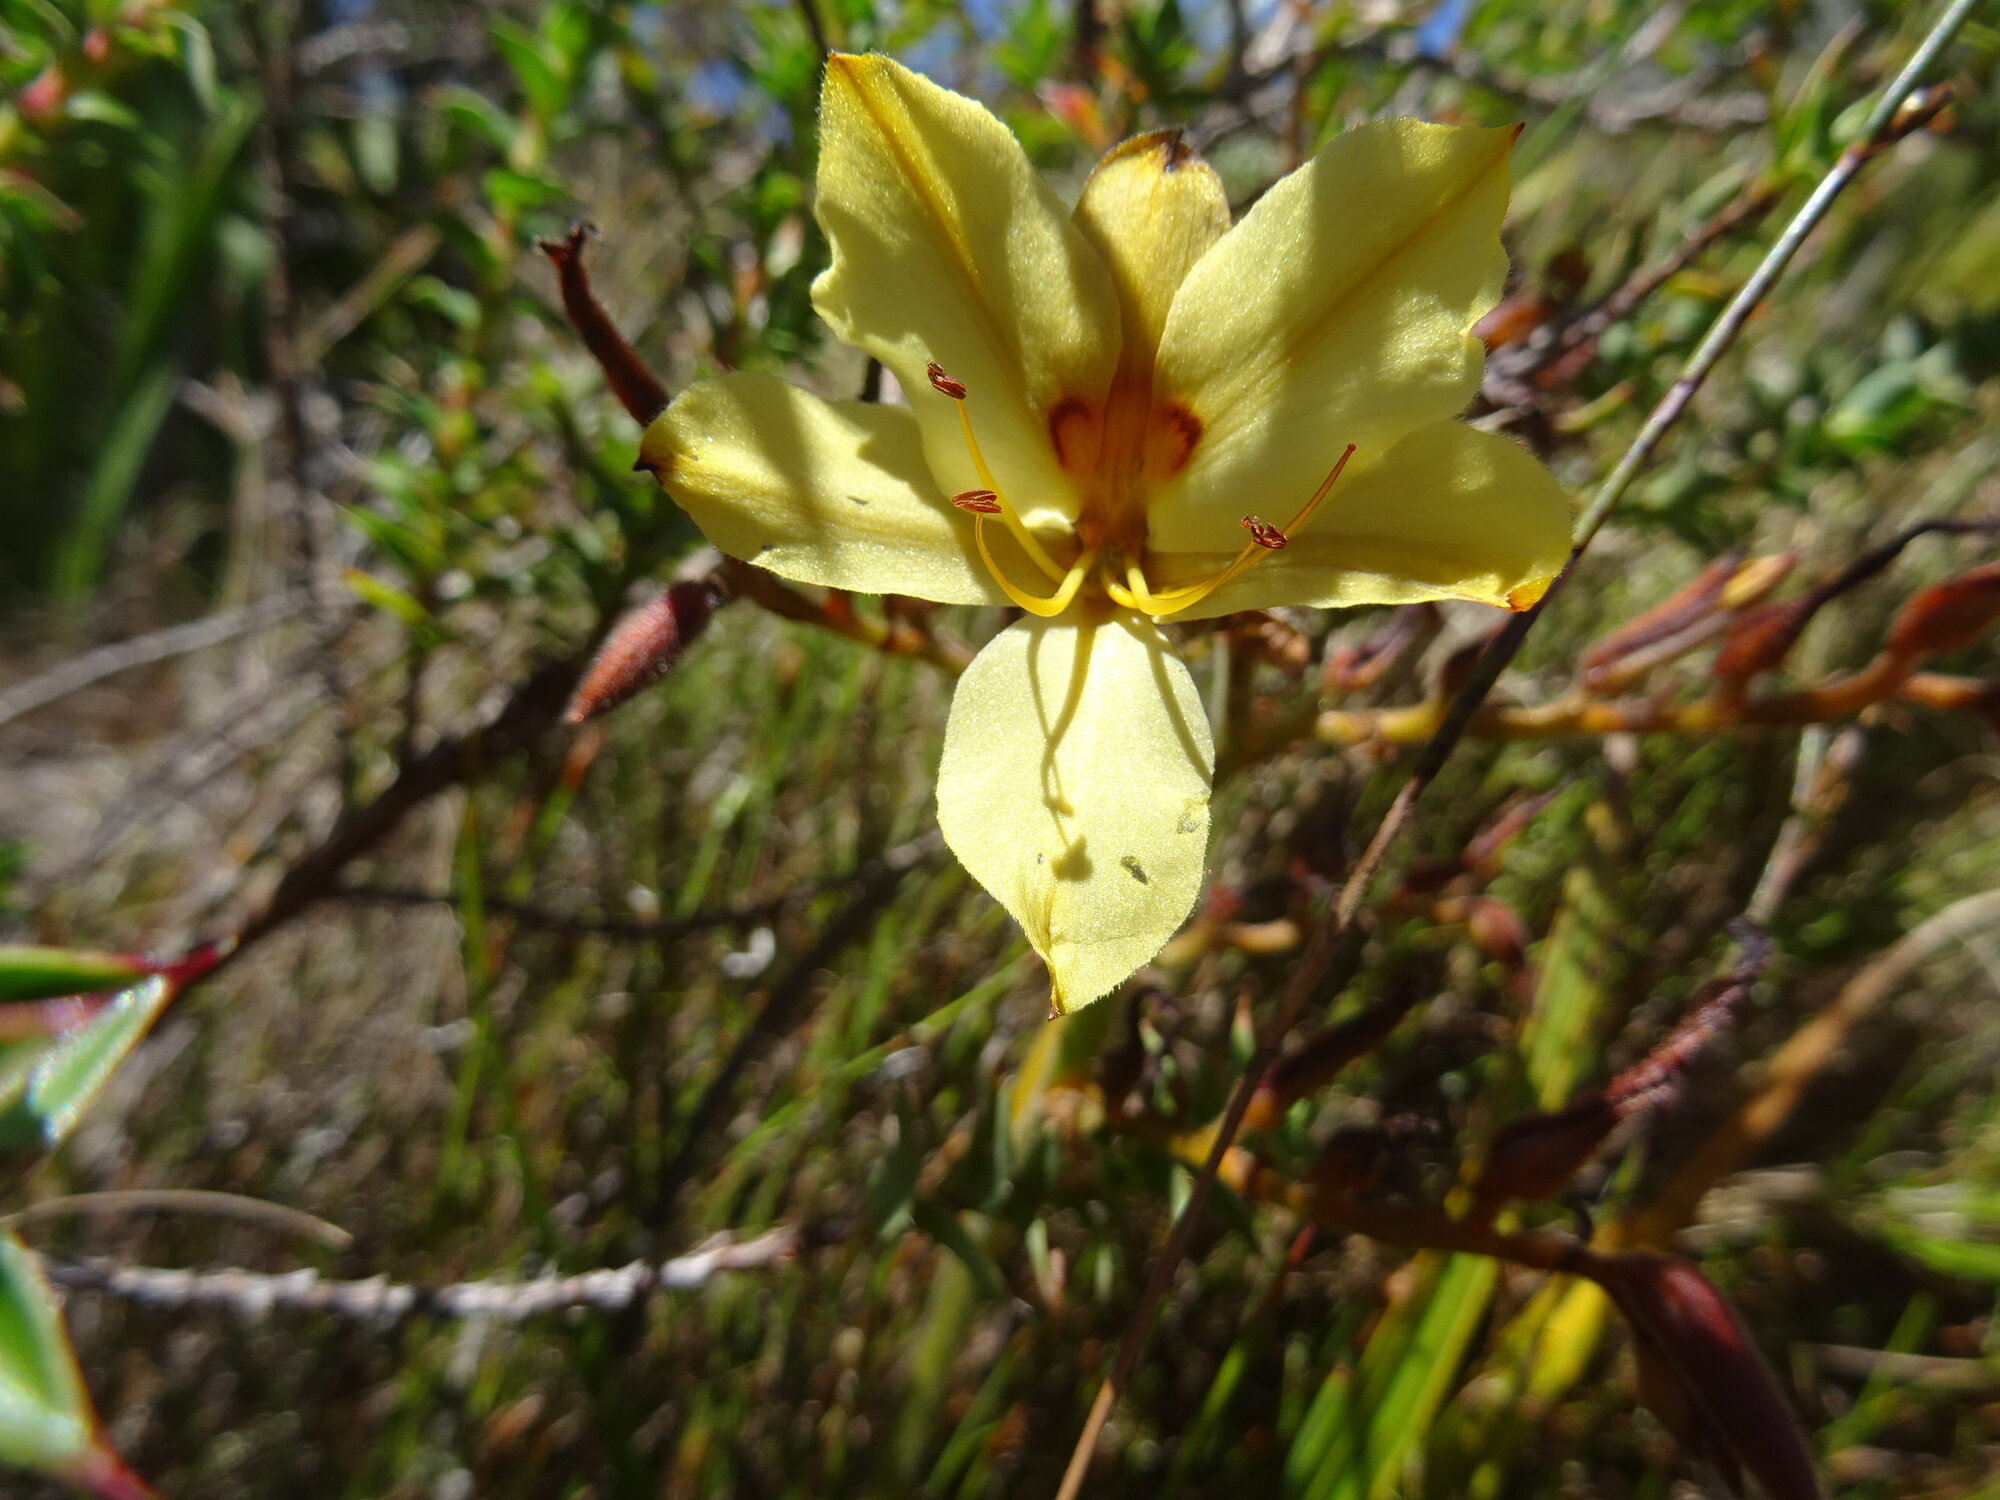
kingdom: Plantae
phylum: Tracheophyta
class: Liliopsida
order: Commelinales
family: Haemodoraceae
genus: Wachendorfia
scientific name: Wachendorfia paniculata
